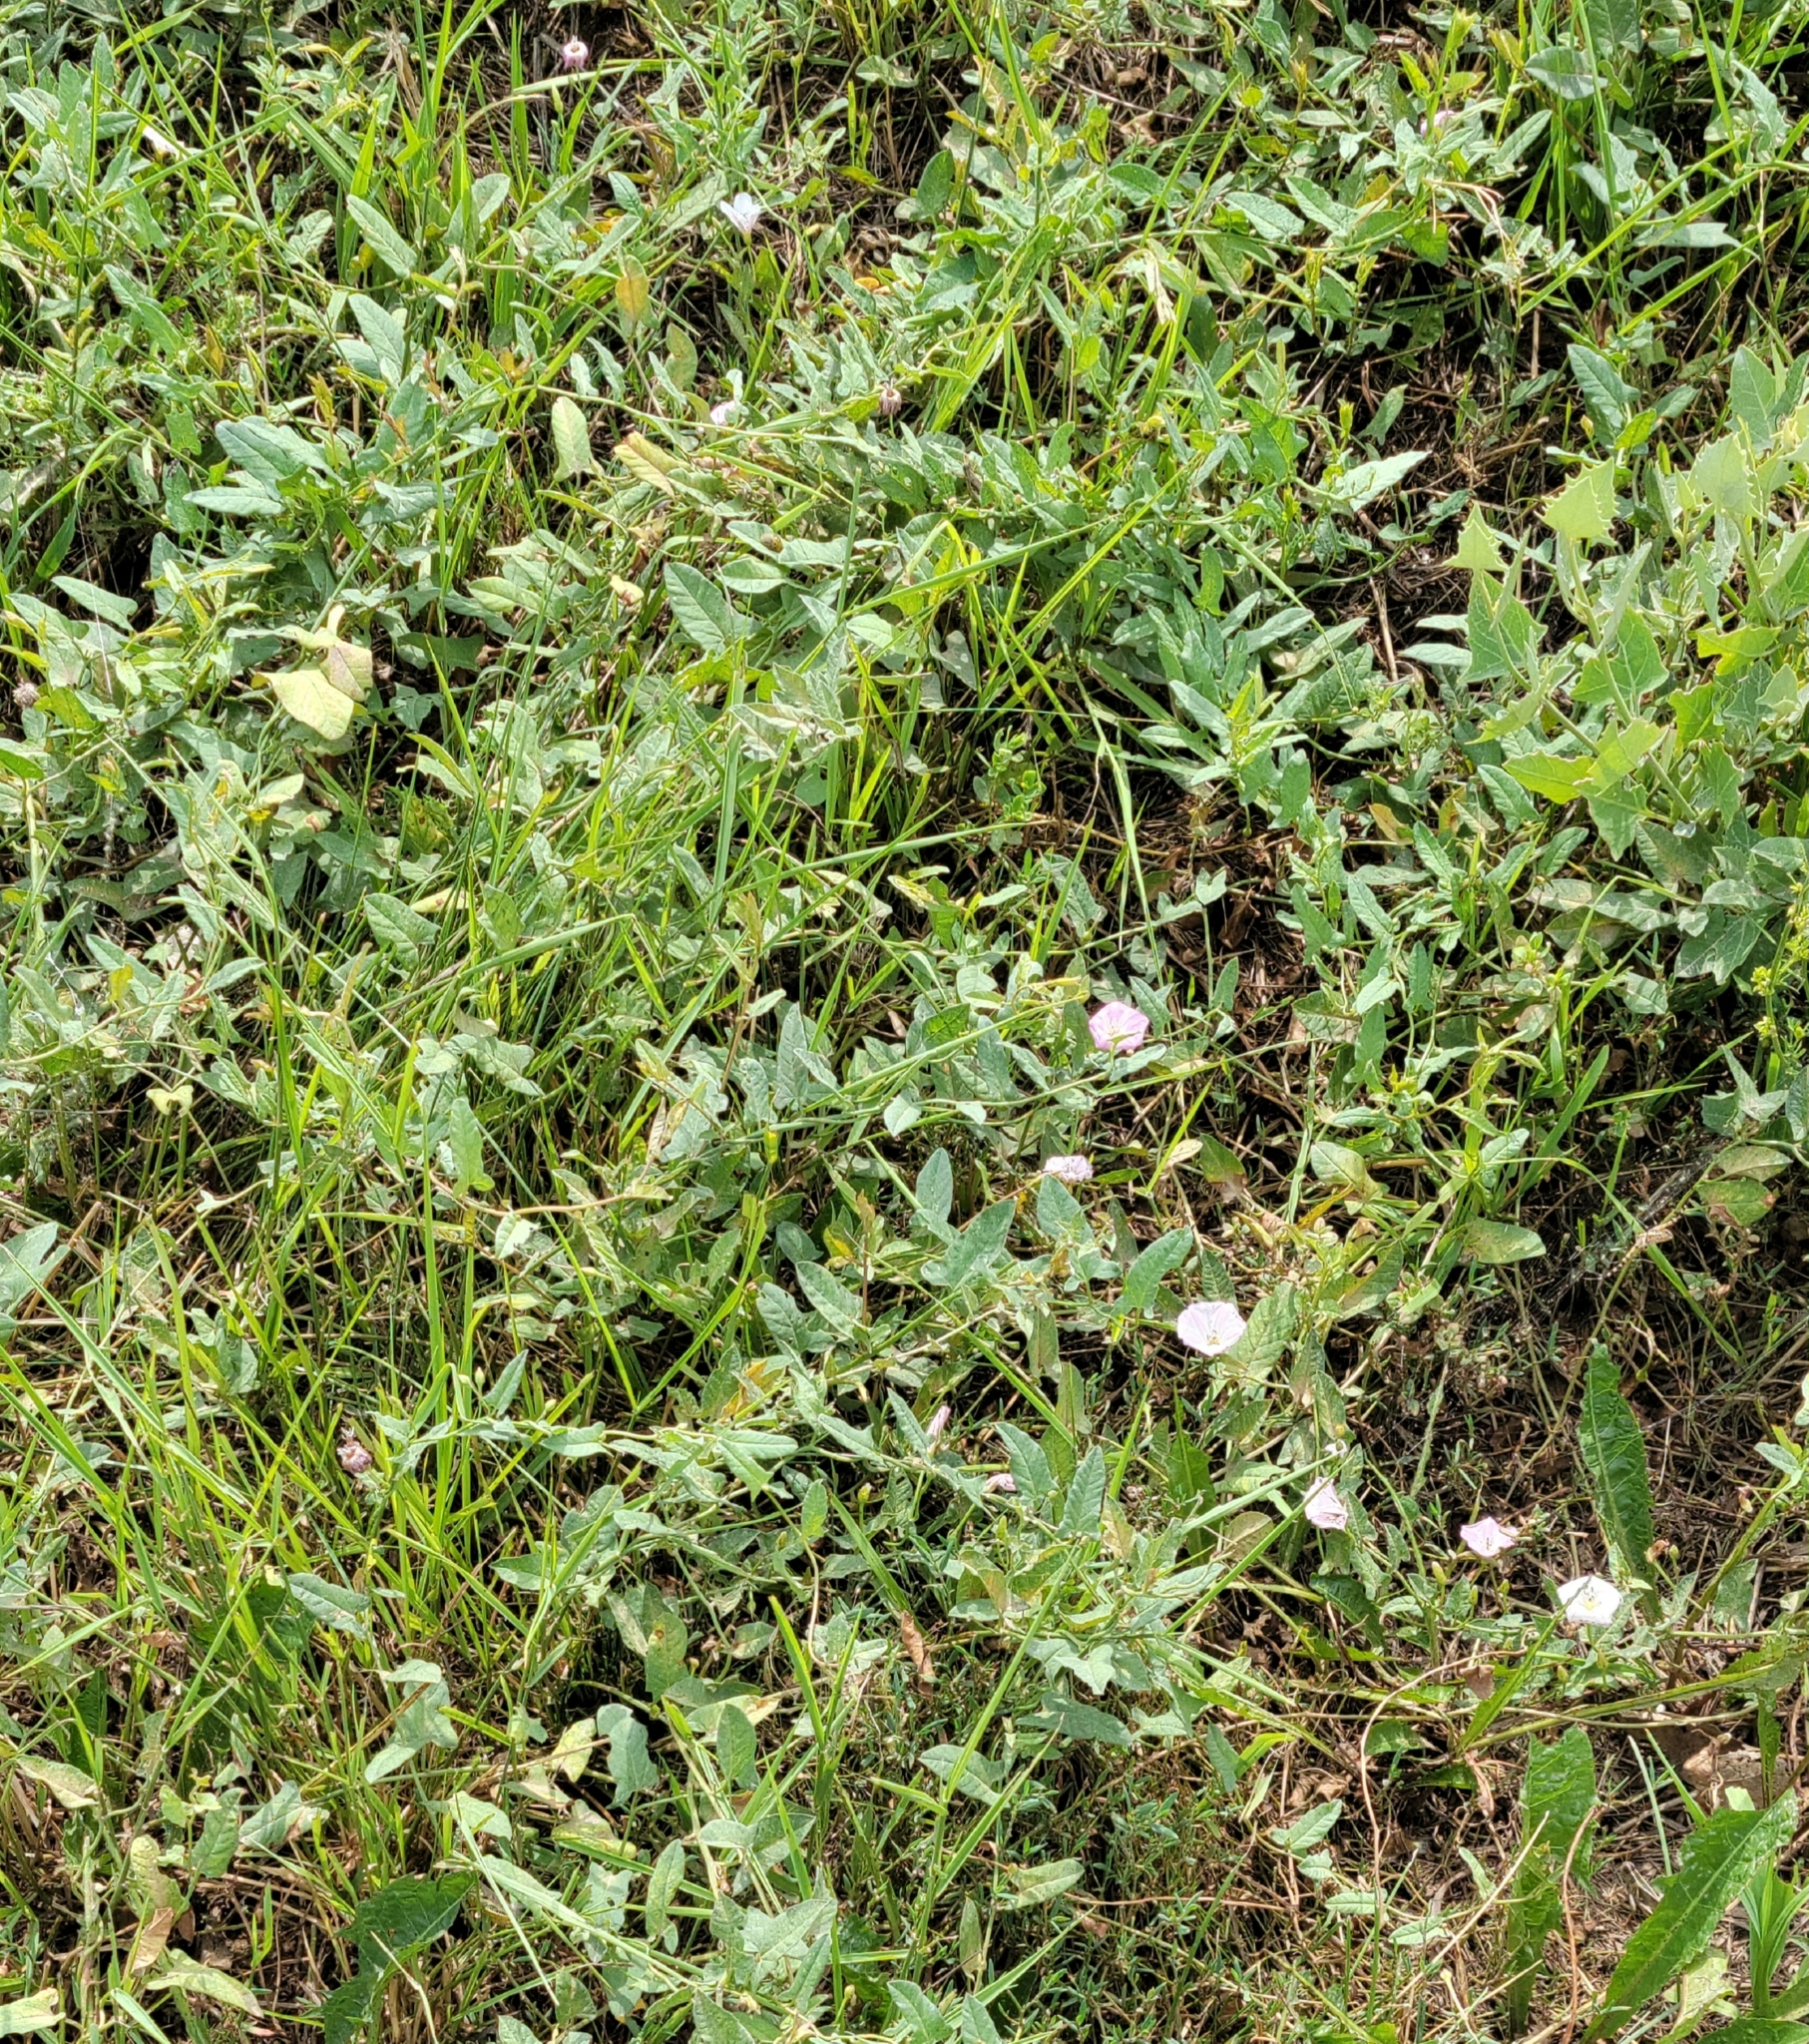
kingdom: Plantae
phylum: Tracheophyta
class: Magnoliopsida
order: Solanales
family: Convolvulaceae
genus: Convolvulus
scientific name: Convolvulus arvensis
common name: Field bindweed
